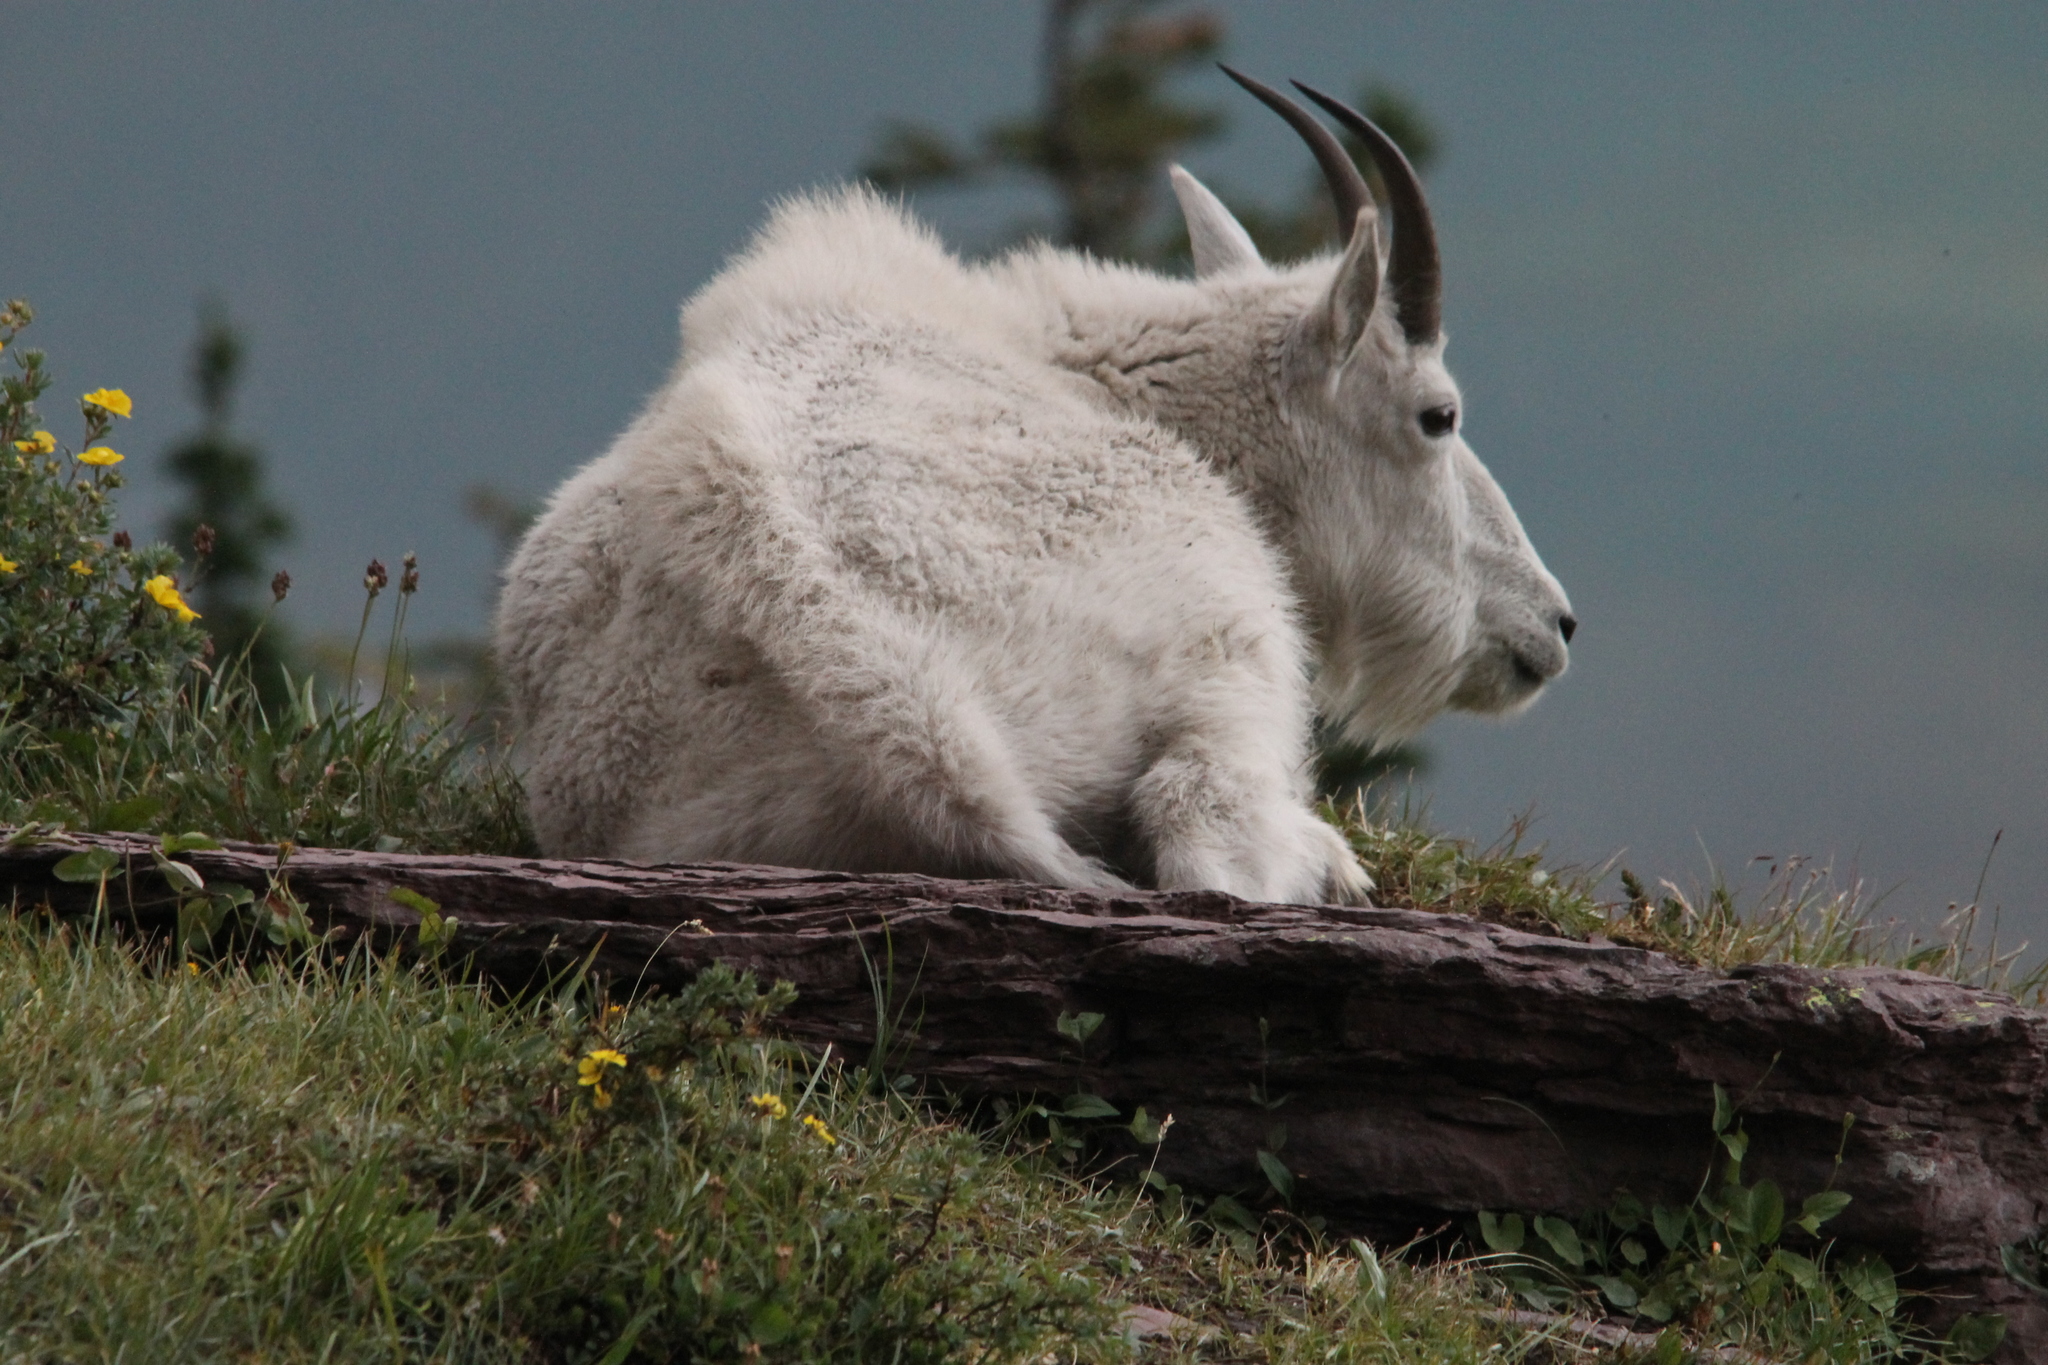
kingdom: Animalia
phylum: Chordata
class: Mammalia
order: Artiodactyla
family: Bovidae
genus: Oreamnos
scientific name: Oreamnos americanus
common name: Mountain goat
